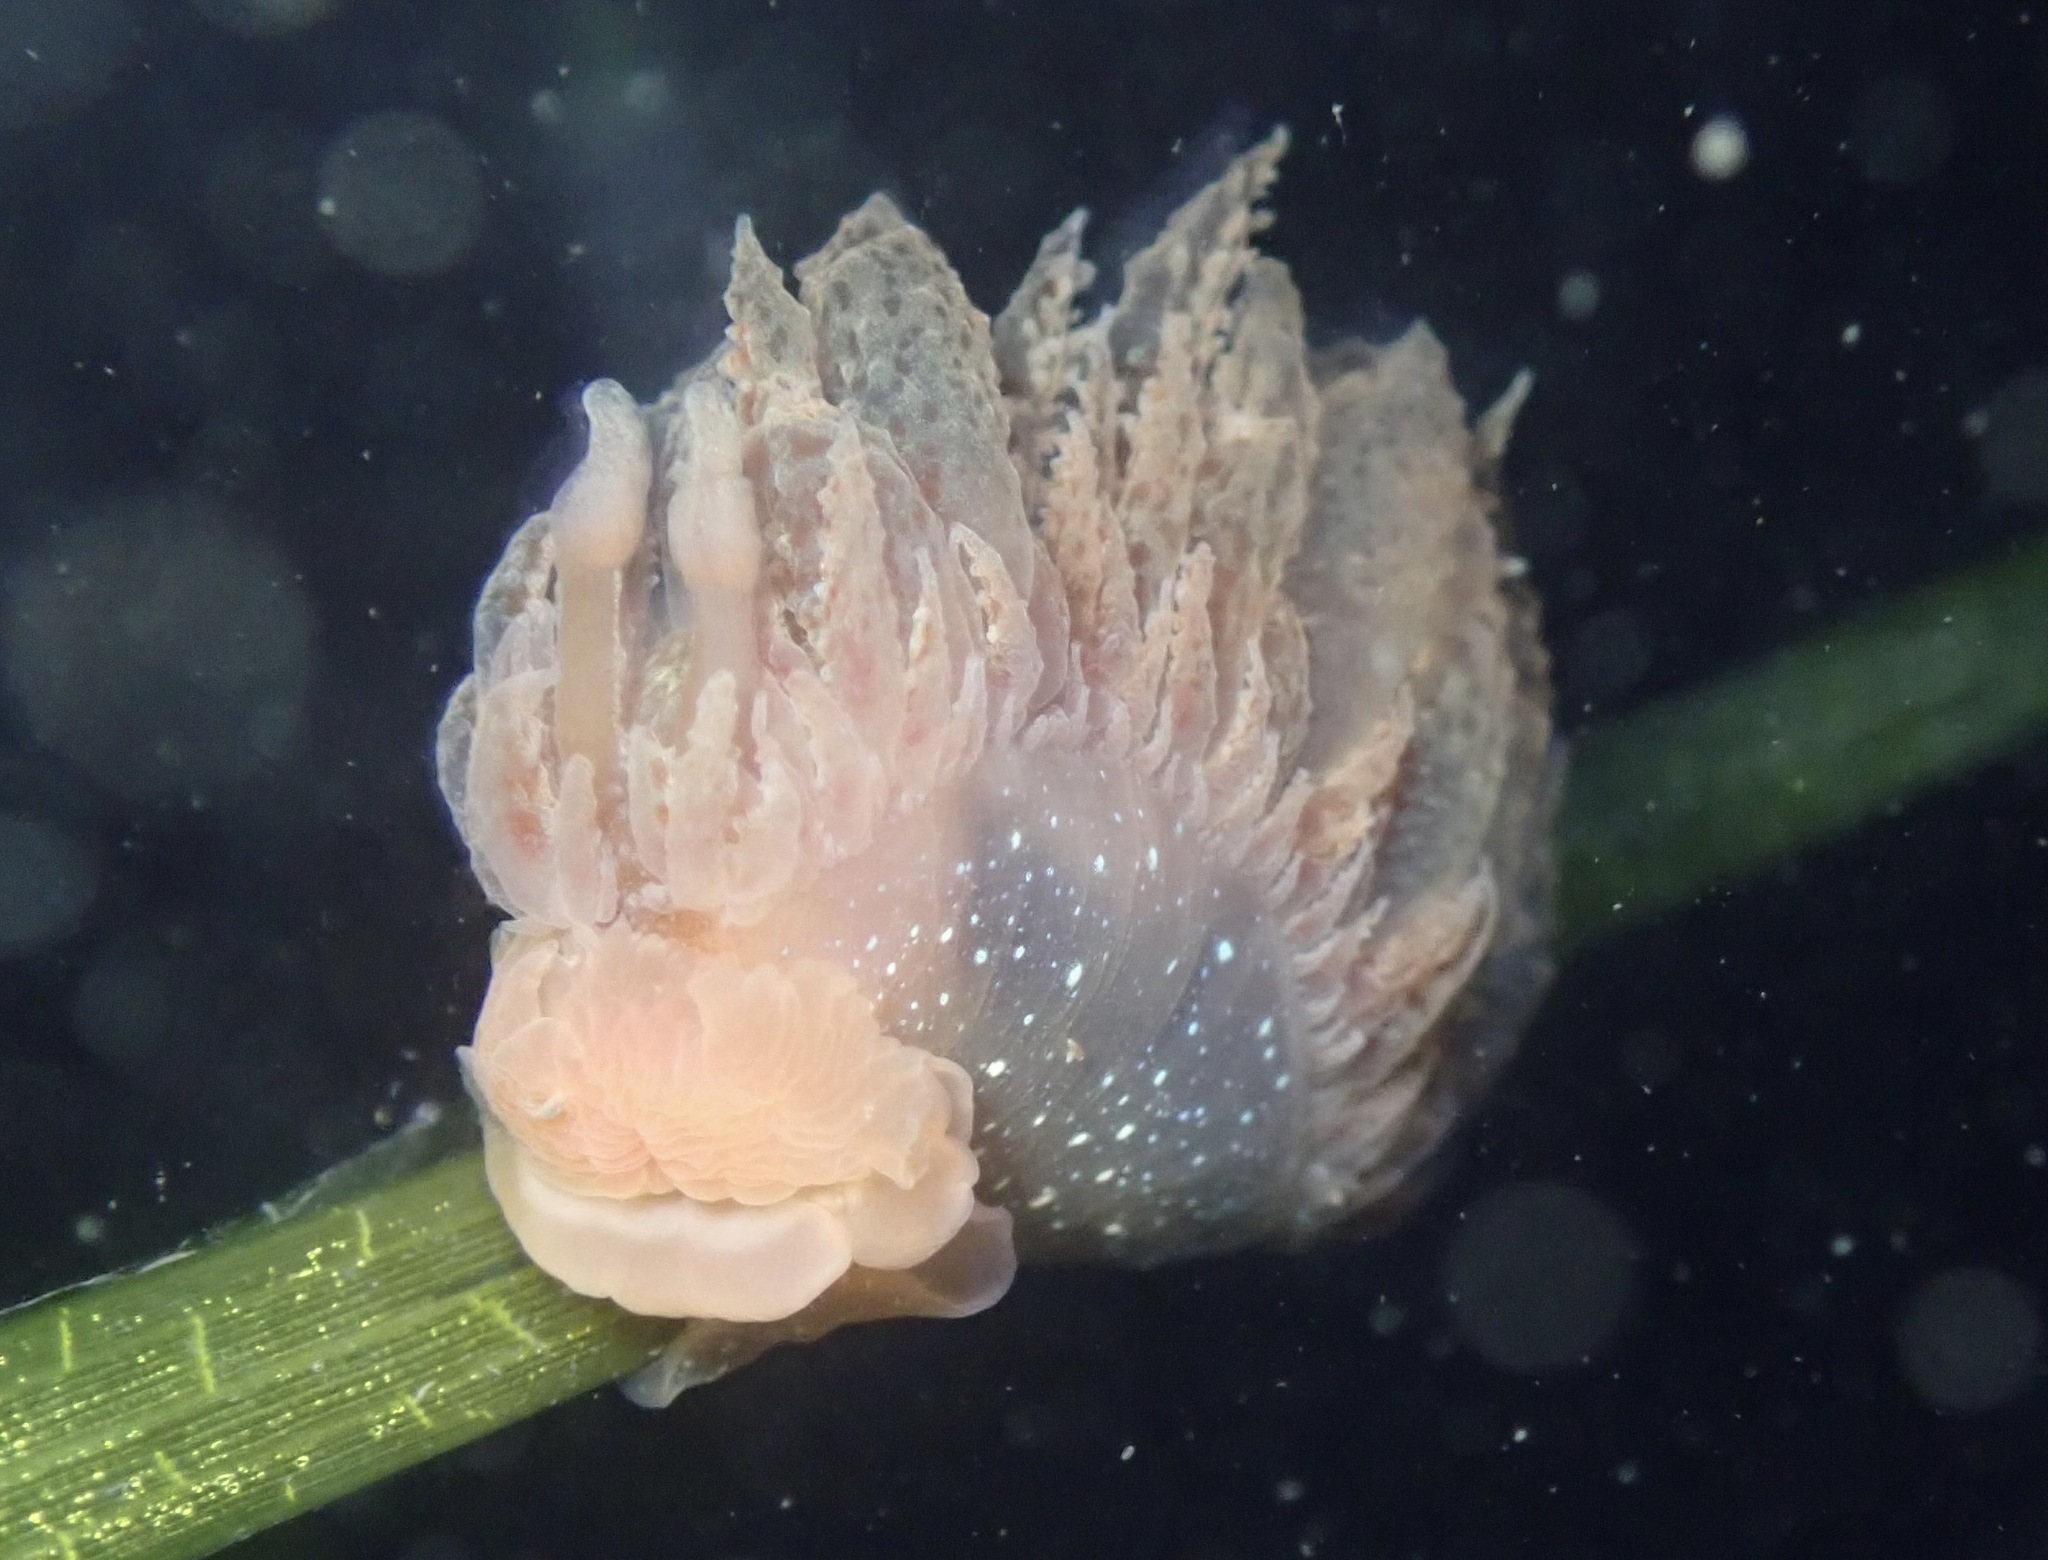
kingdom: Animalia
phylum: Mollusca
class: Gastropoda
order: Nudibranchia
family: Dironidae
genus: Dirona
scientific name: Dirona picta
